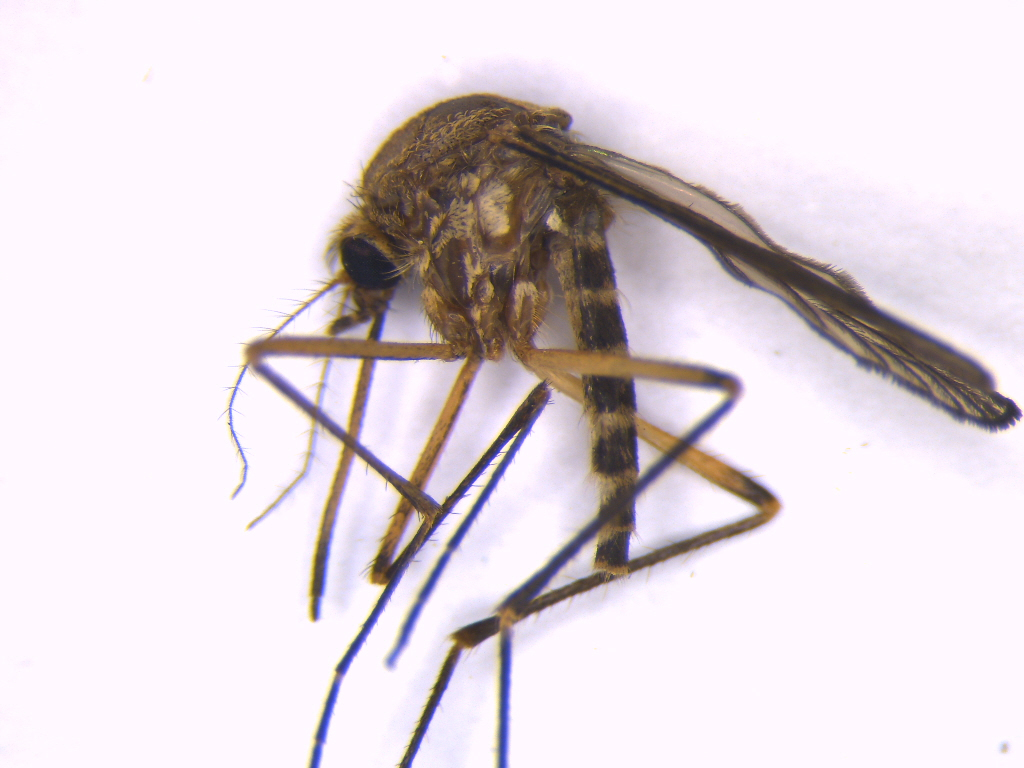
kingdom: Animalia
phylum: Arthropoda
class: Insecta
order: Diptera
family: Culicidae
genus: Aedes
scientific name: Aedes subalbirostris
